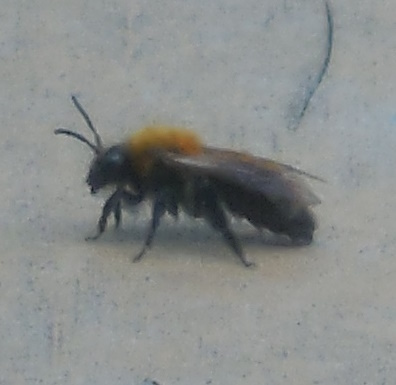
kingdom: Animalia
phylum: Arthropoda
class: Insecta
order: Hymenoptera
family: Andrenidae
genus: Andrena
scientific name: Andrena milwaukeensis
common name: Milwaukee mining bee
